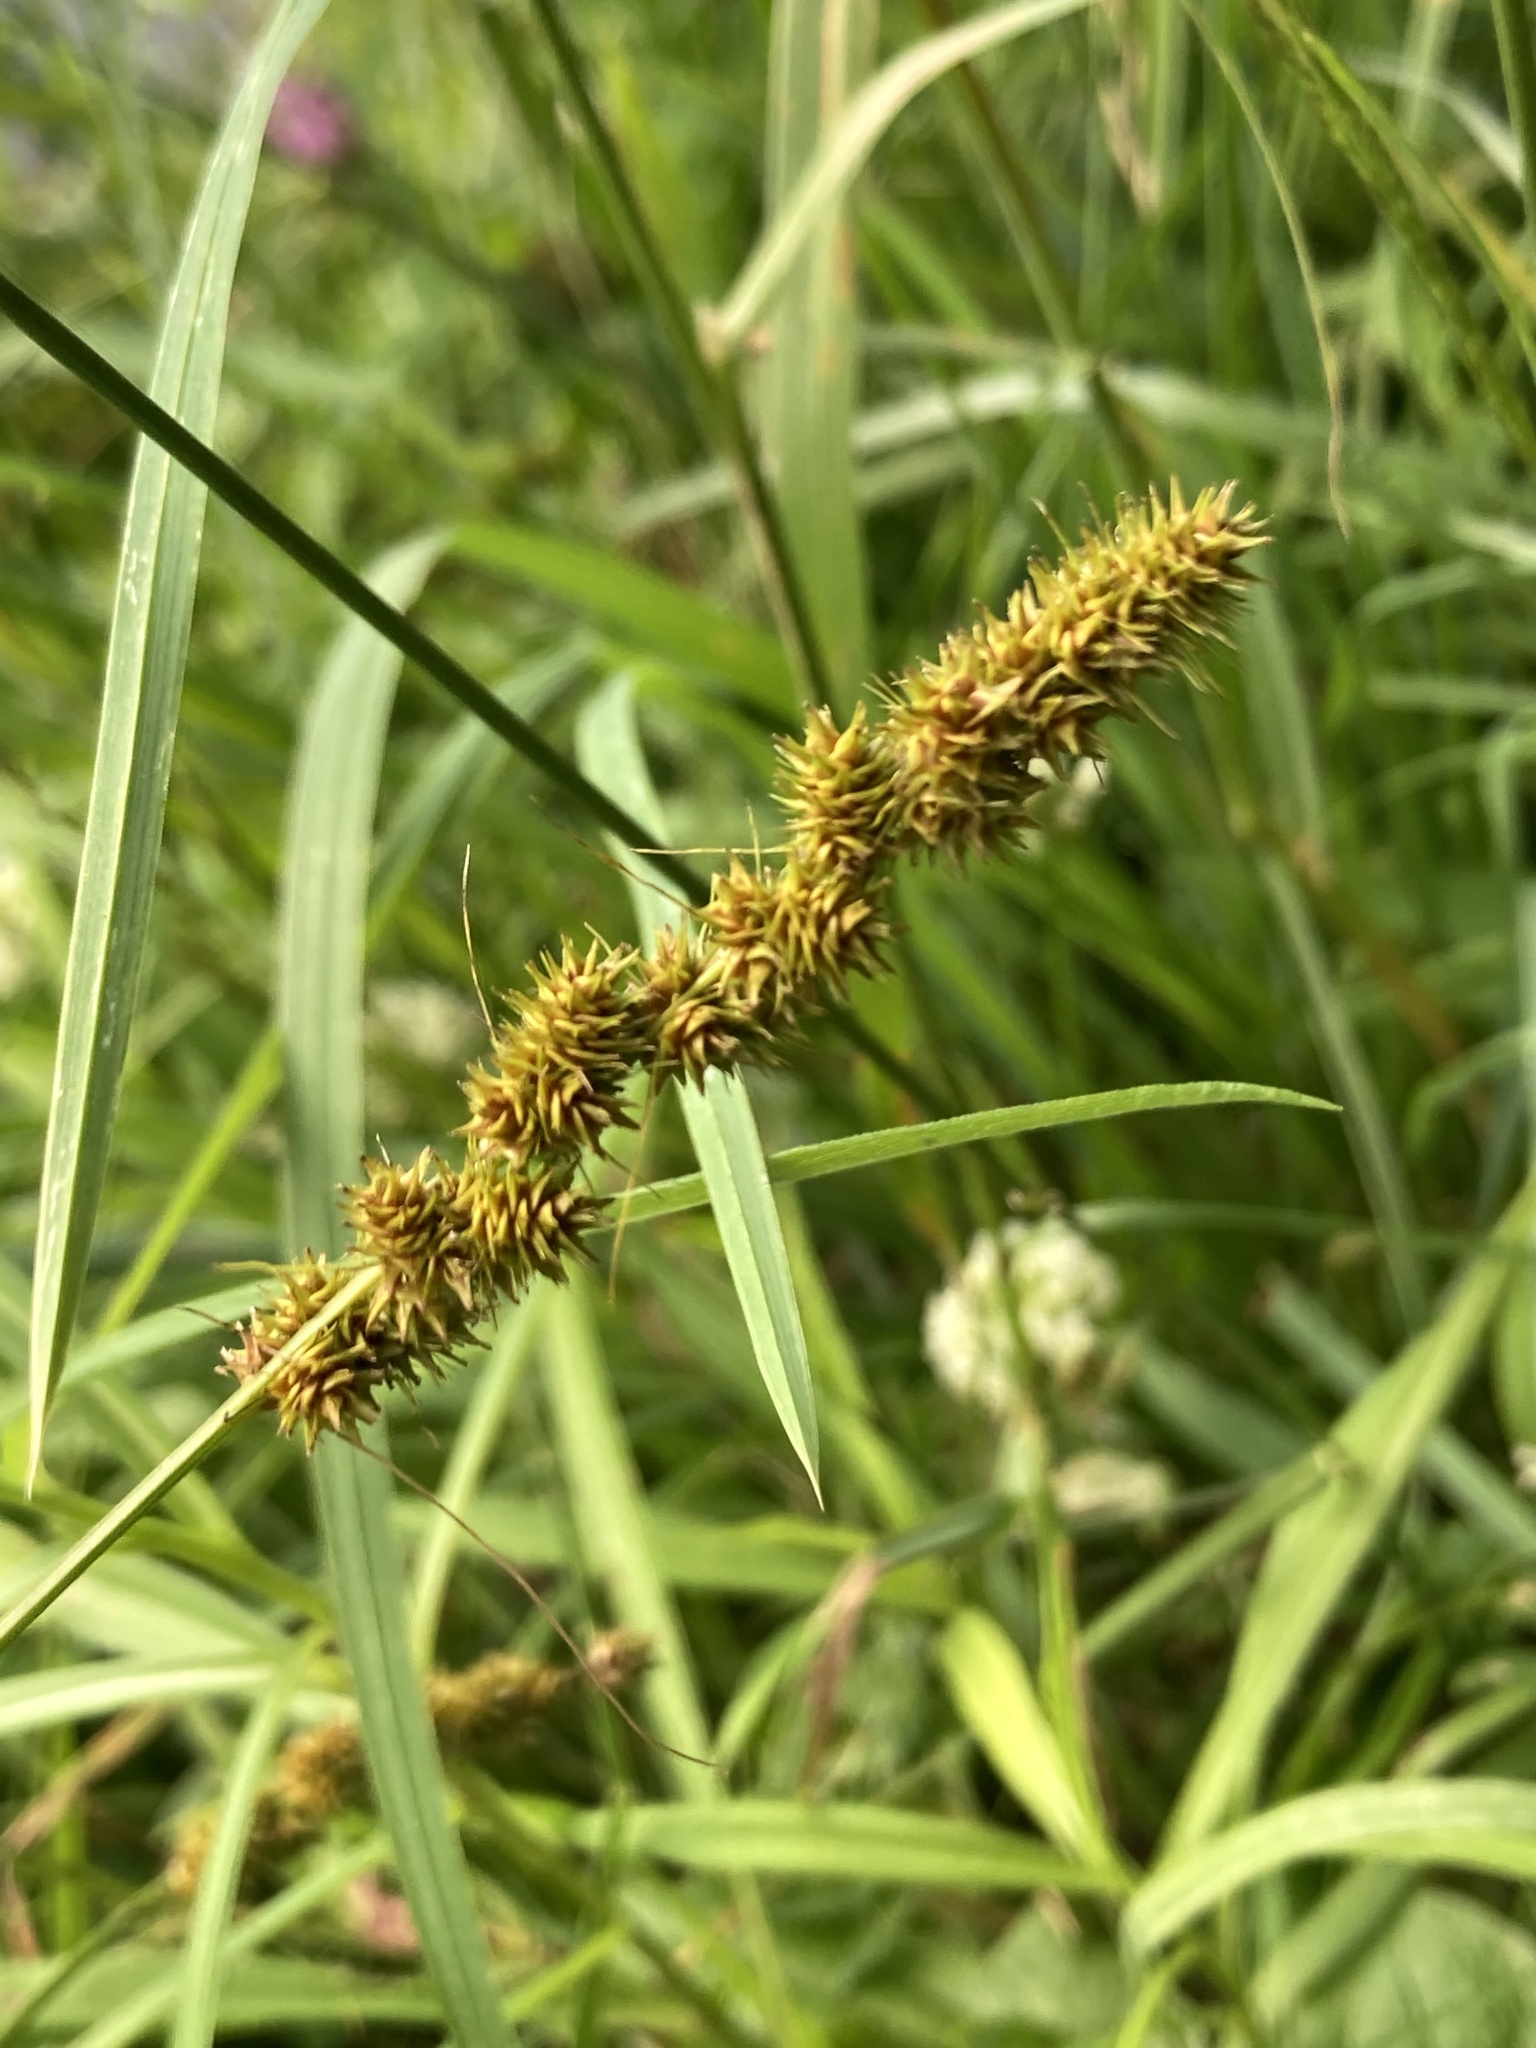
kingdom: Plantae
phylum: Tracheophyta
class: Liliopsida
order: Poales
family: Cyperaceae
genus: Carex
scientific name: Carex vulpinoidea
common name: American fox-sedge
